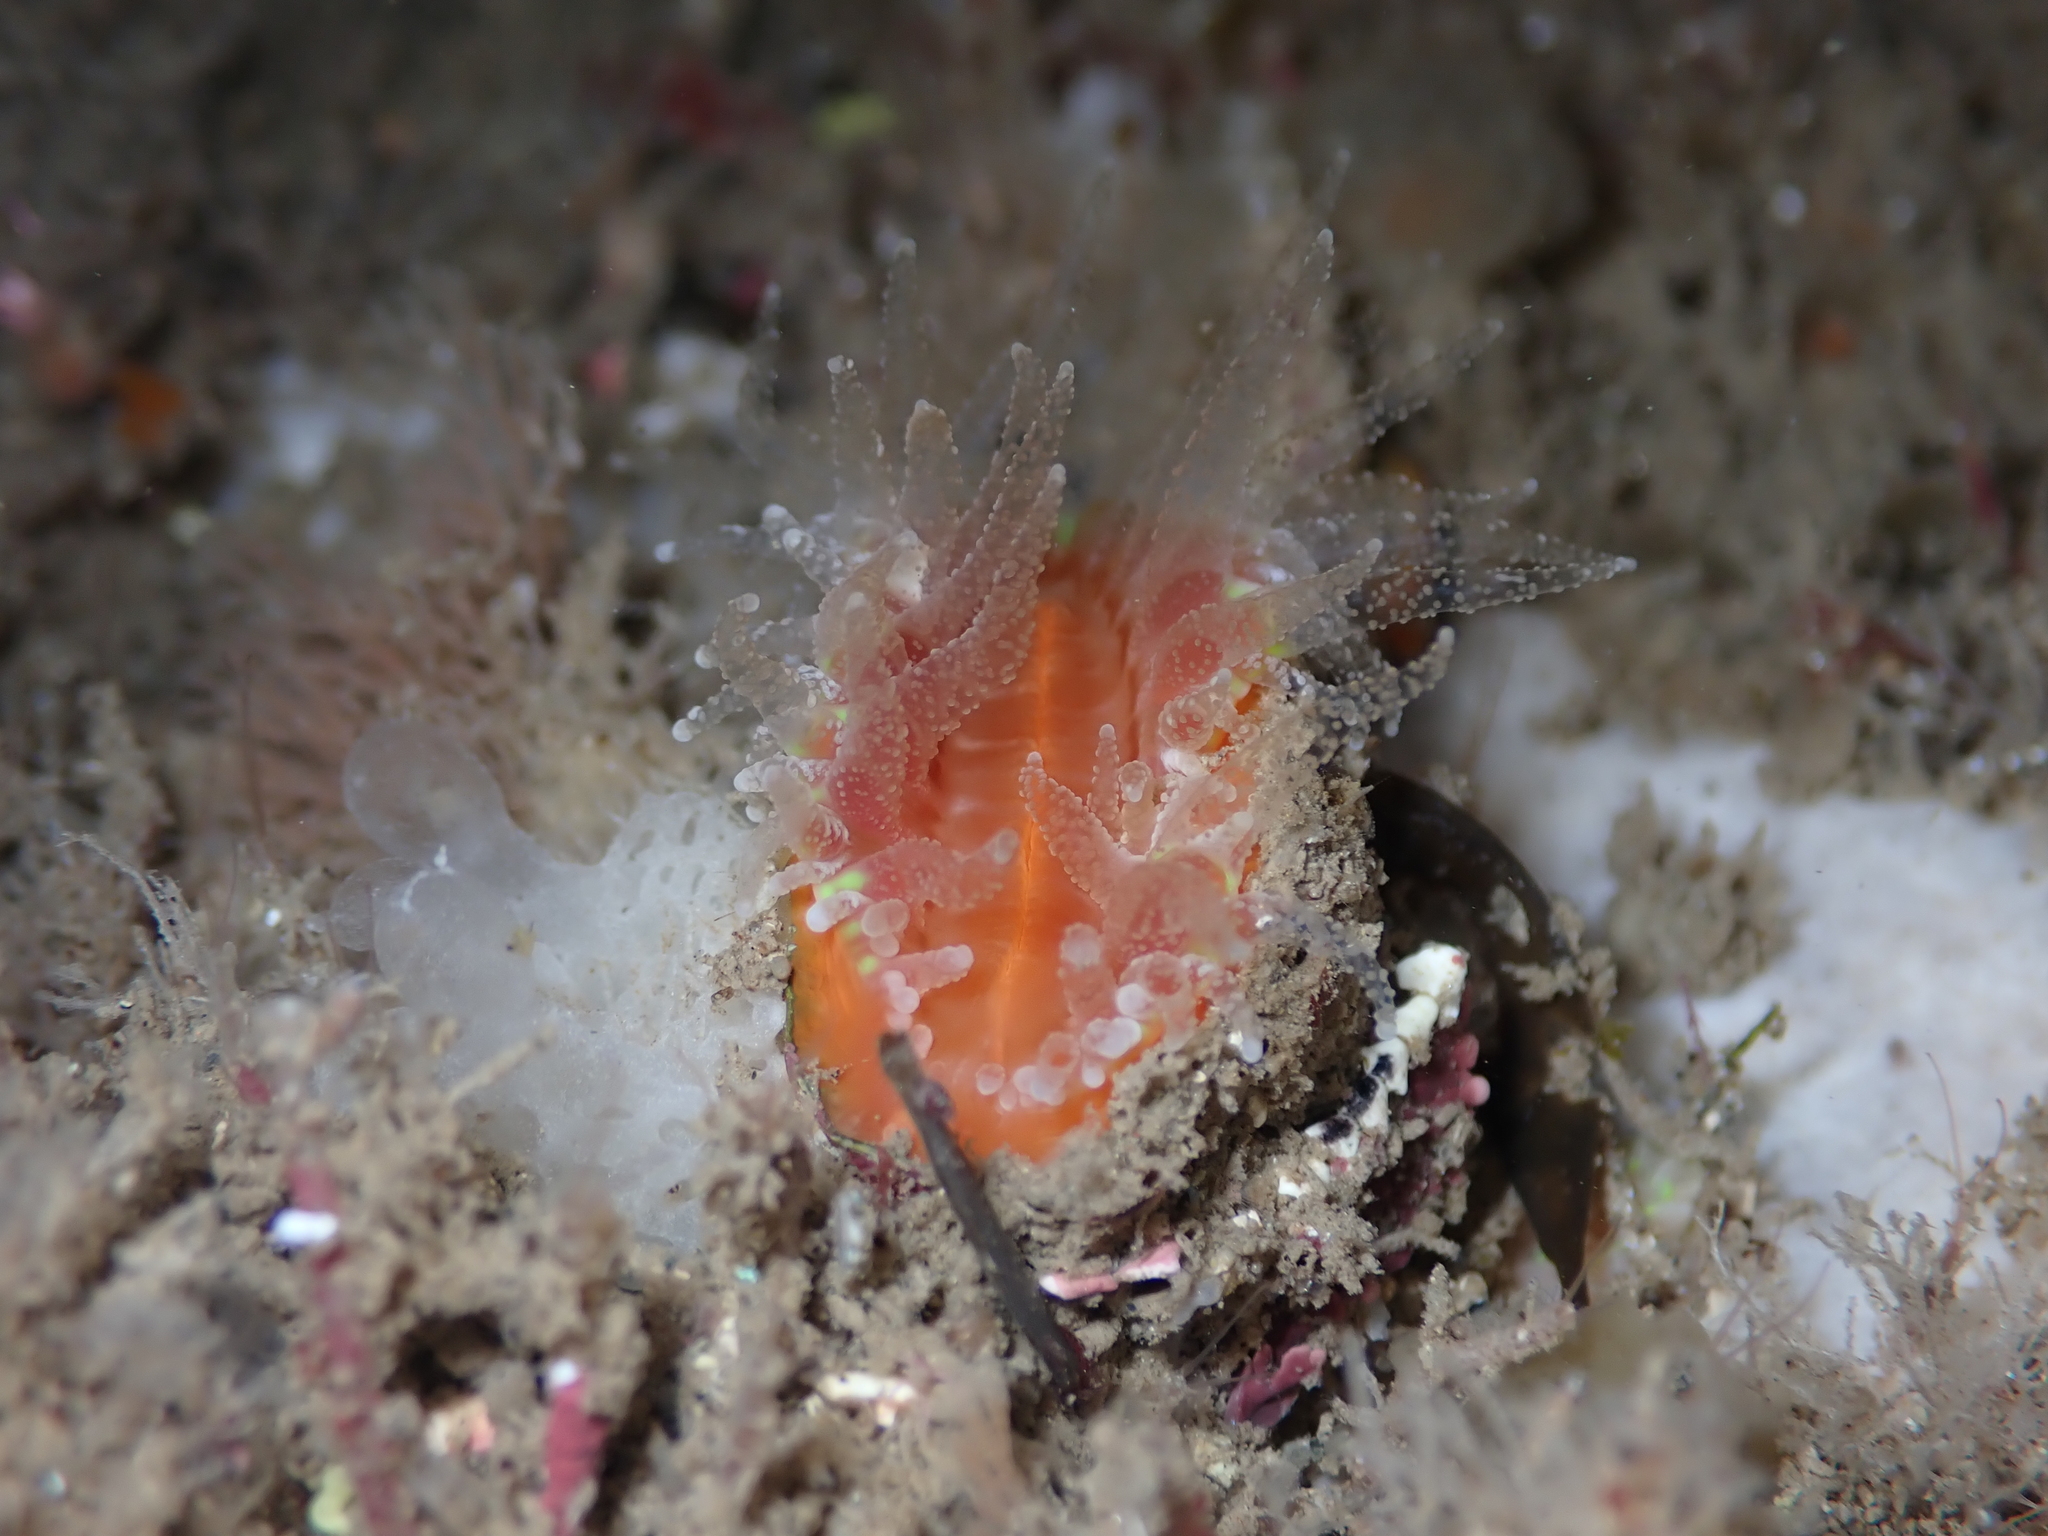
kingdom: Animalia
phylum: Cnidaria
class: Anthozoa
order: Scleractinia
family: Flabellidae
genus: Monomyces
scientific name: Monomyces rubrum
